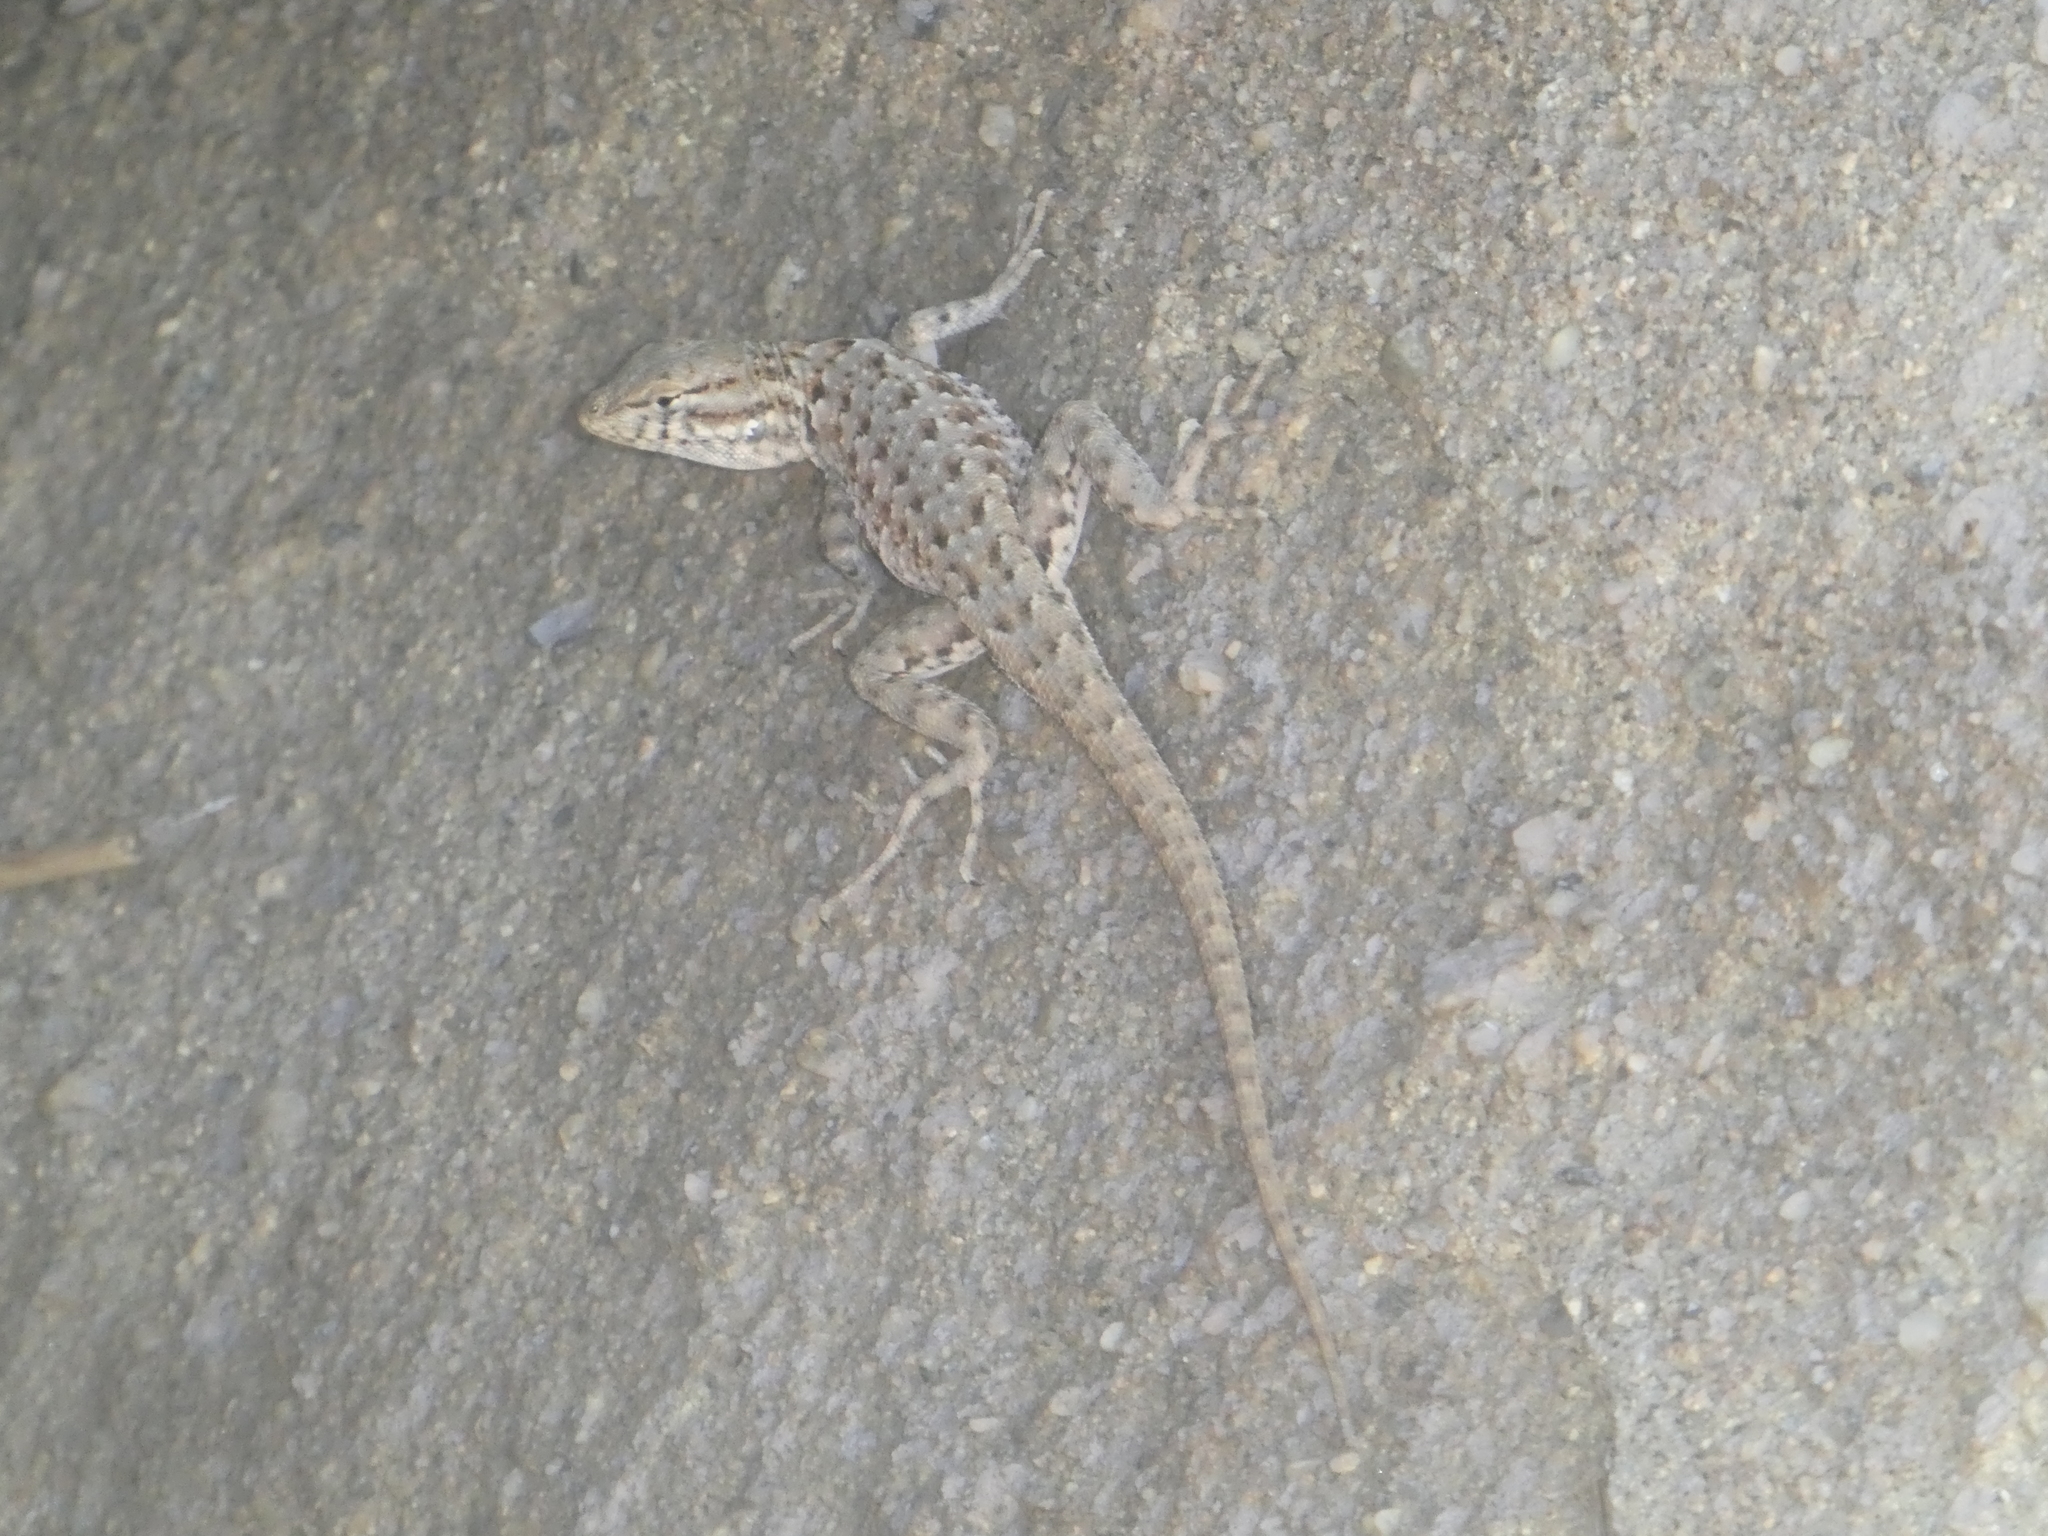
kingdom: Animalia
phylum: Chordata
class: Squamata
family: Phrynosomatidae
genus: Uta
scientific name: Uta stansburiana
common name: Side-blotched lizard
